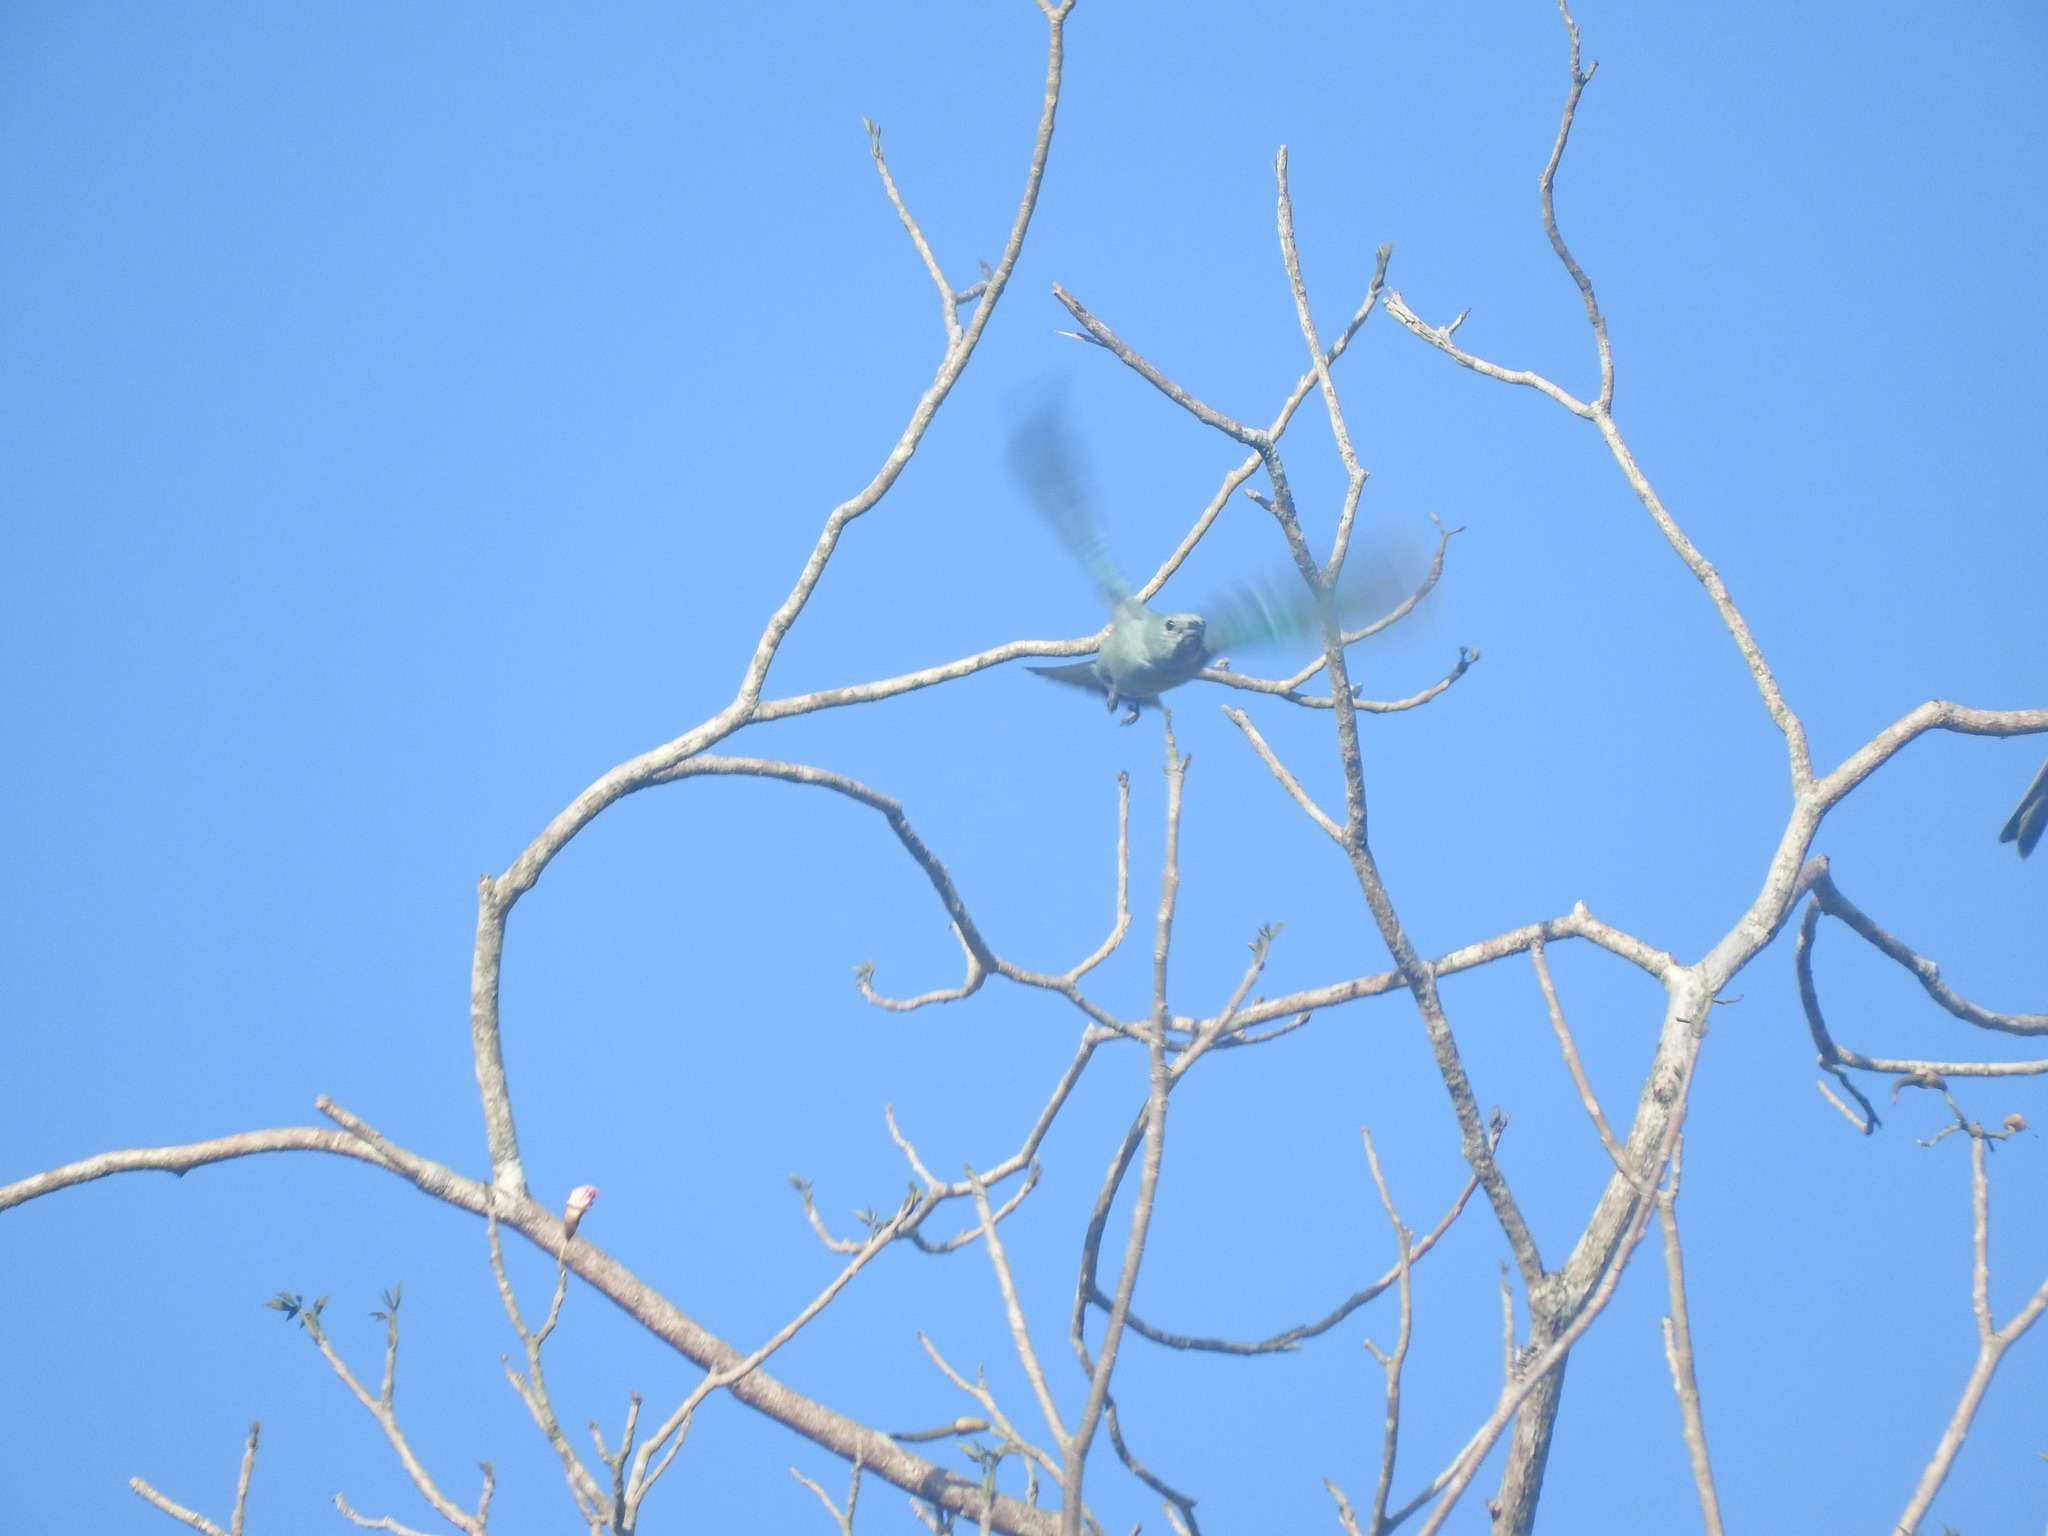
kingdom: Animalia
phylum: Chordata
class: Aves
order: Passeriformes
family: Thraupidae
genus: Thraupis
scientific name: Thraupis episcopus
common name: Blue-grey tanager
